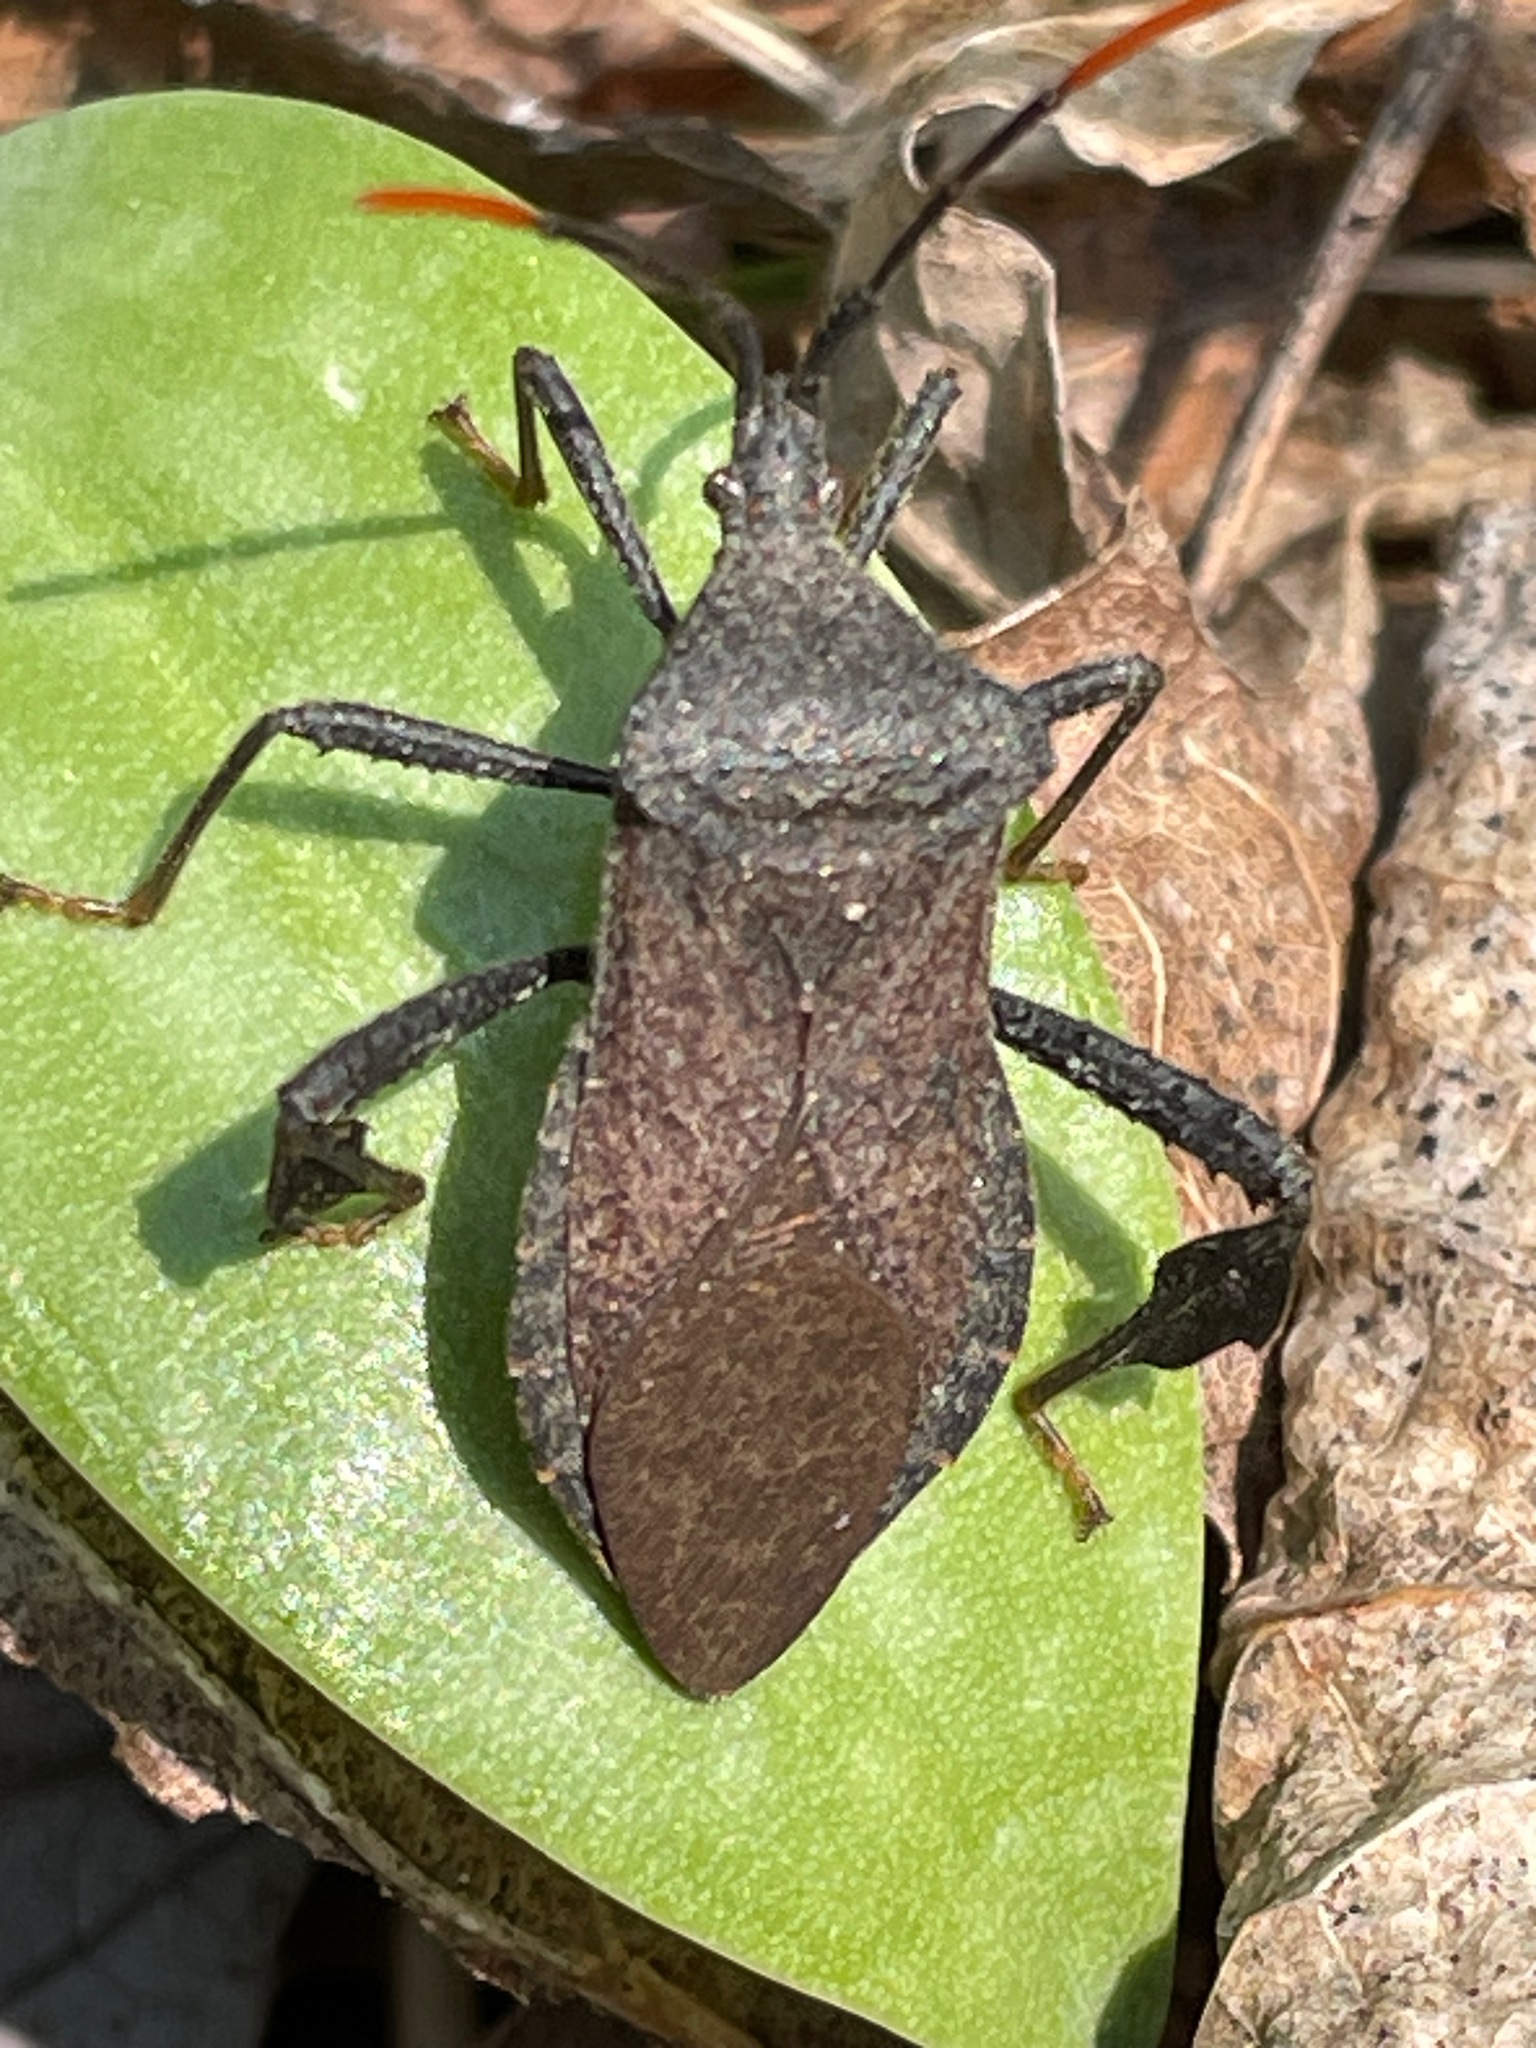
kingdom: Animalia
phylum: Arthropoda
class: Insecta
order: Hemiptera
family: Coreidae
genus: Acanthocephala
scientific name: Acanthocephala terminalis
